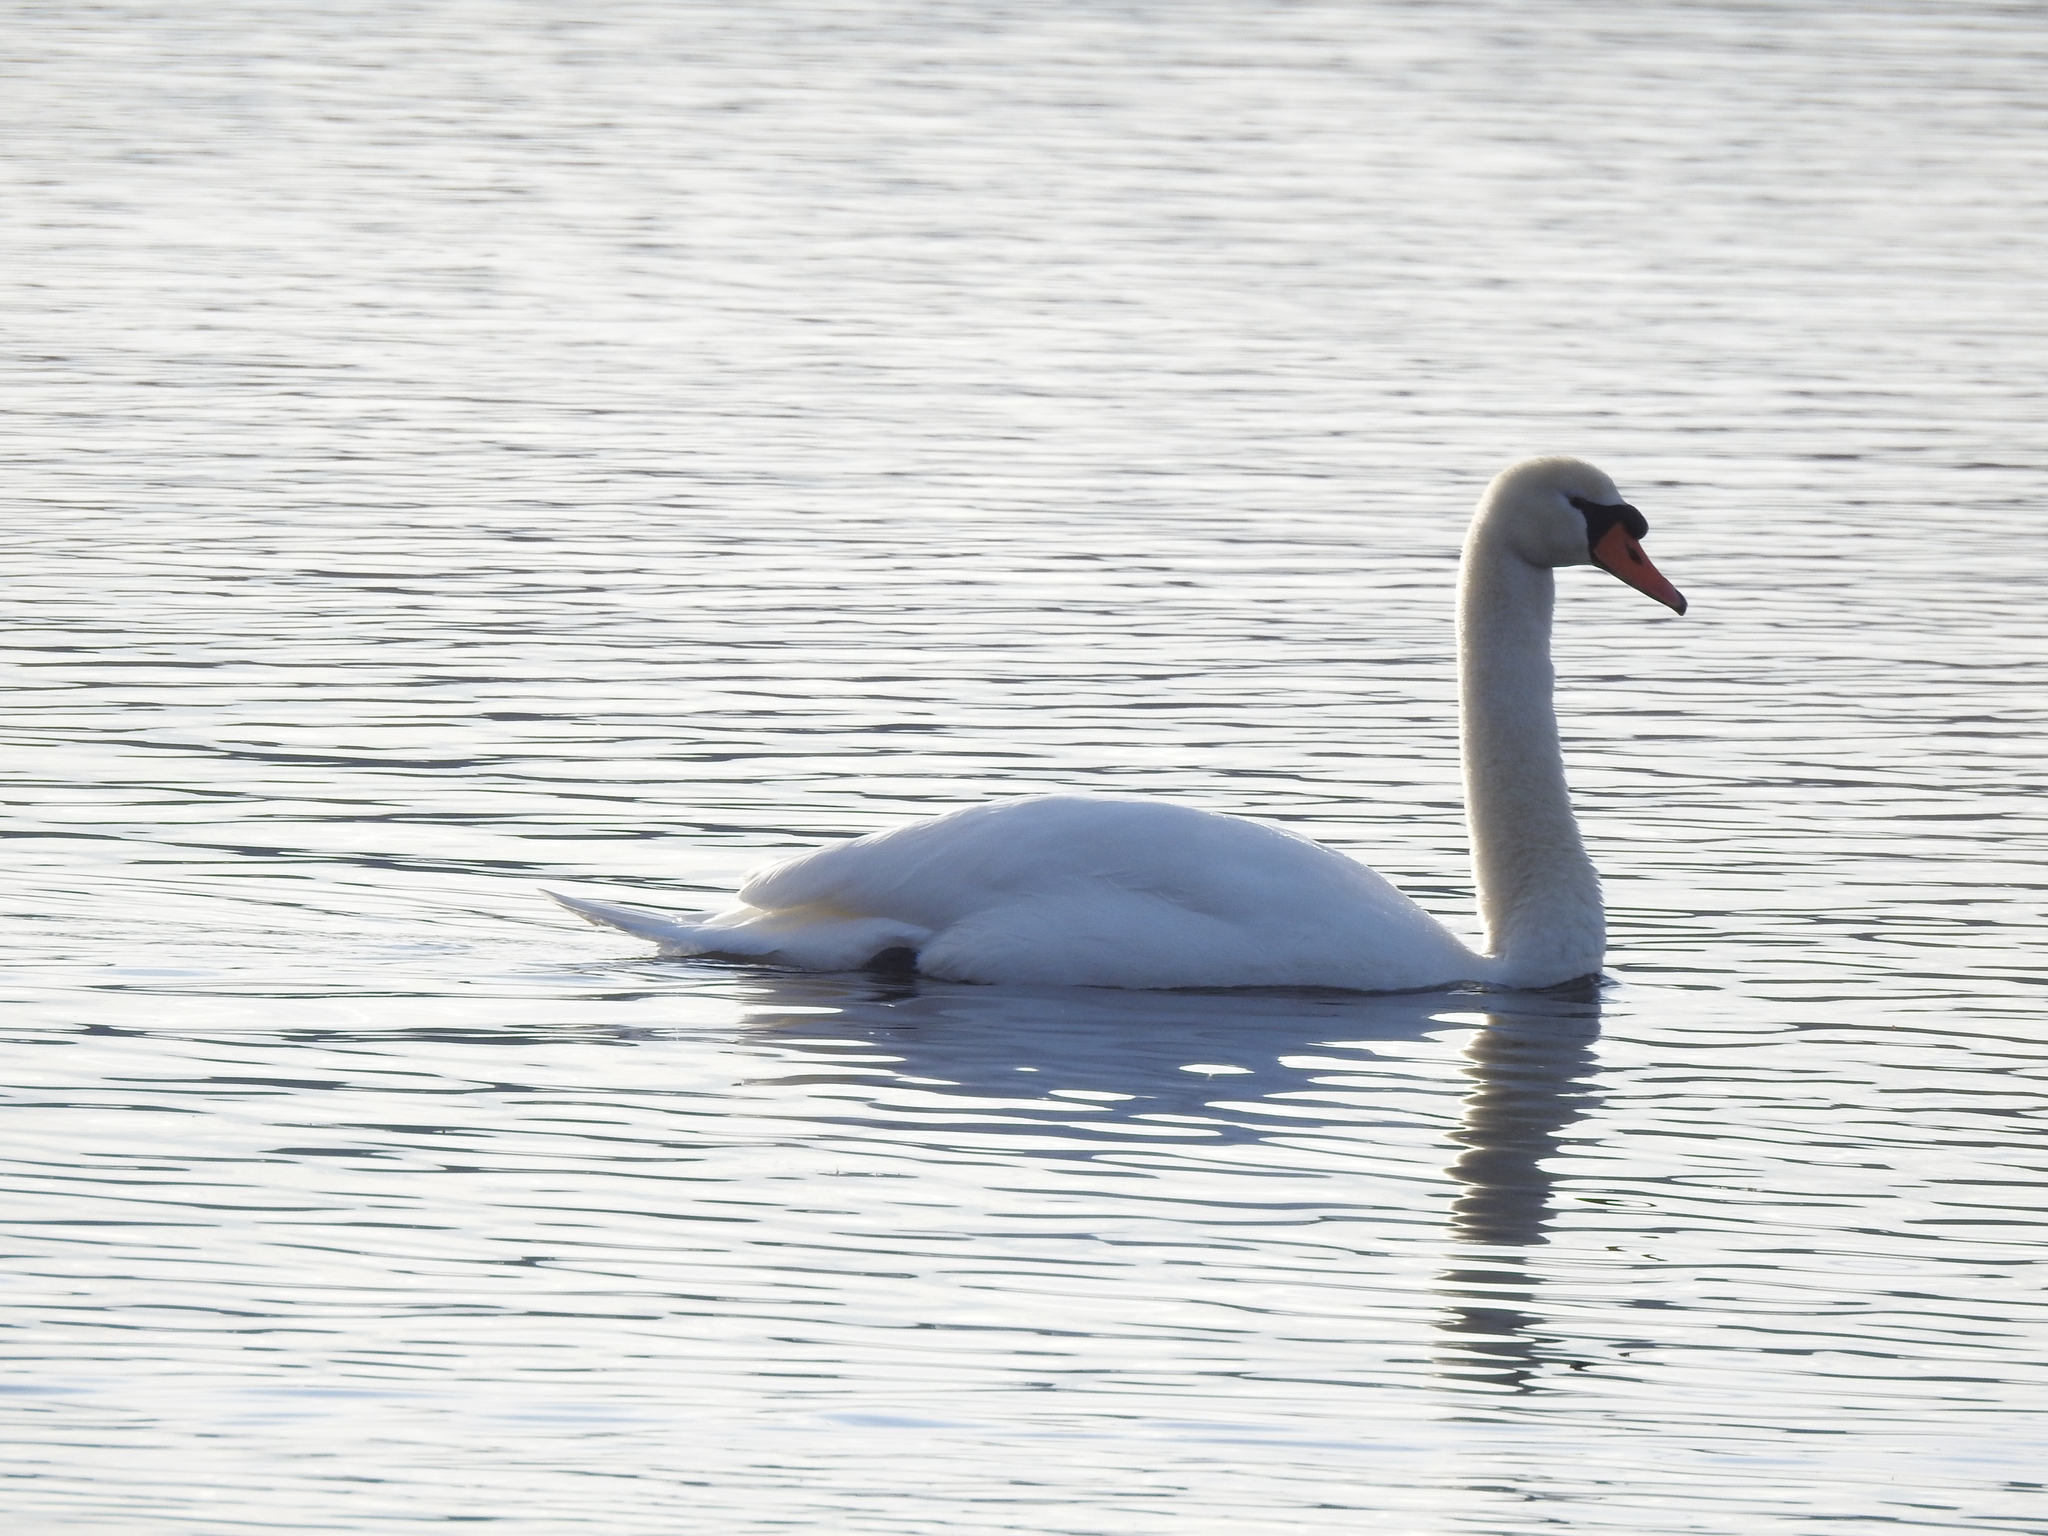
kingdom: Animalia
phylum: Chordata
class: Aves
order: Anseriformes
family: Anatidae
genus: Cygnus
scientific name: Cygnus olor
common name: Mute swan
